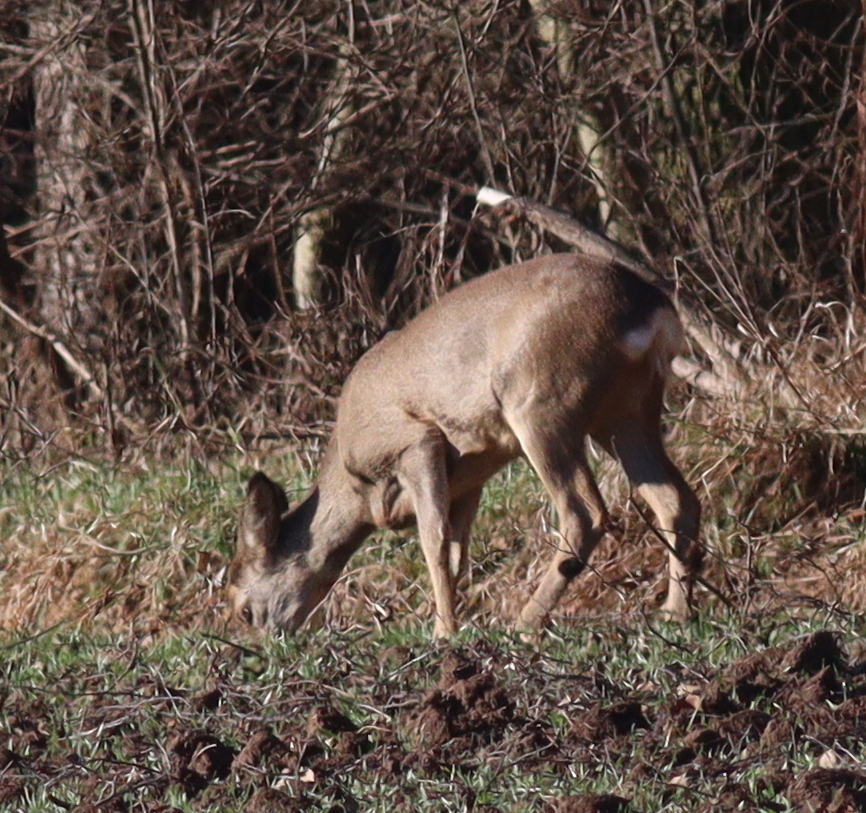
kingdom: Animalia
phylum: Chordata
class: Mammalia
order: Artiodactyla
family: Cervidae
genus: Capreolus
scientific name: Capreolus capreolus
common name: Western roe deer
